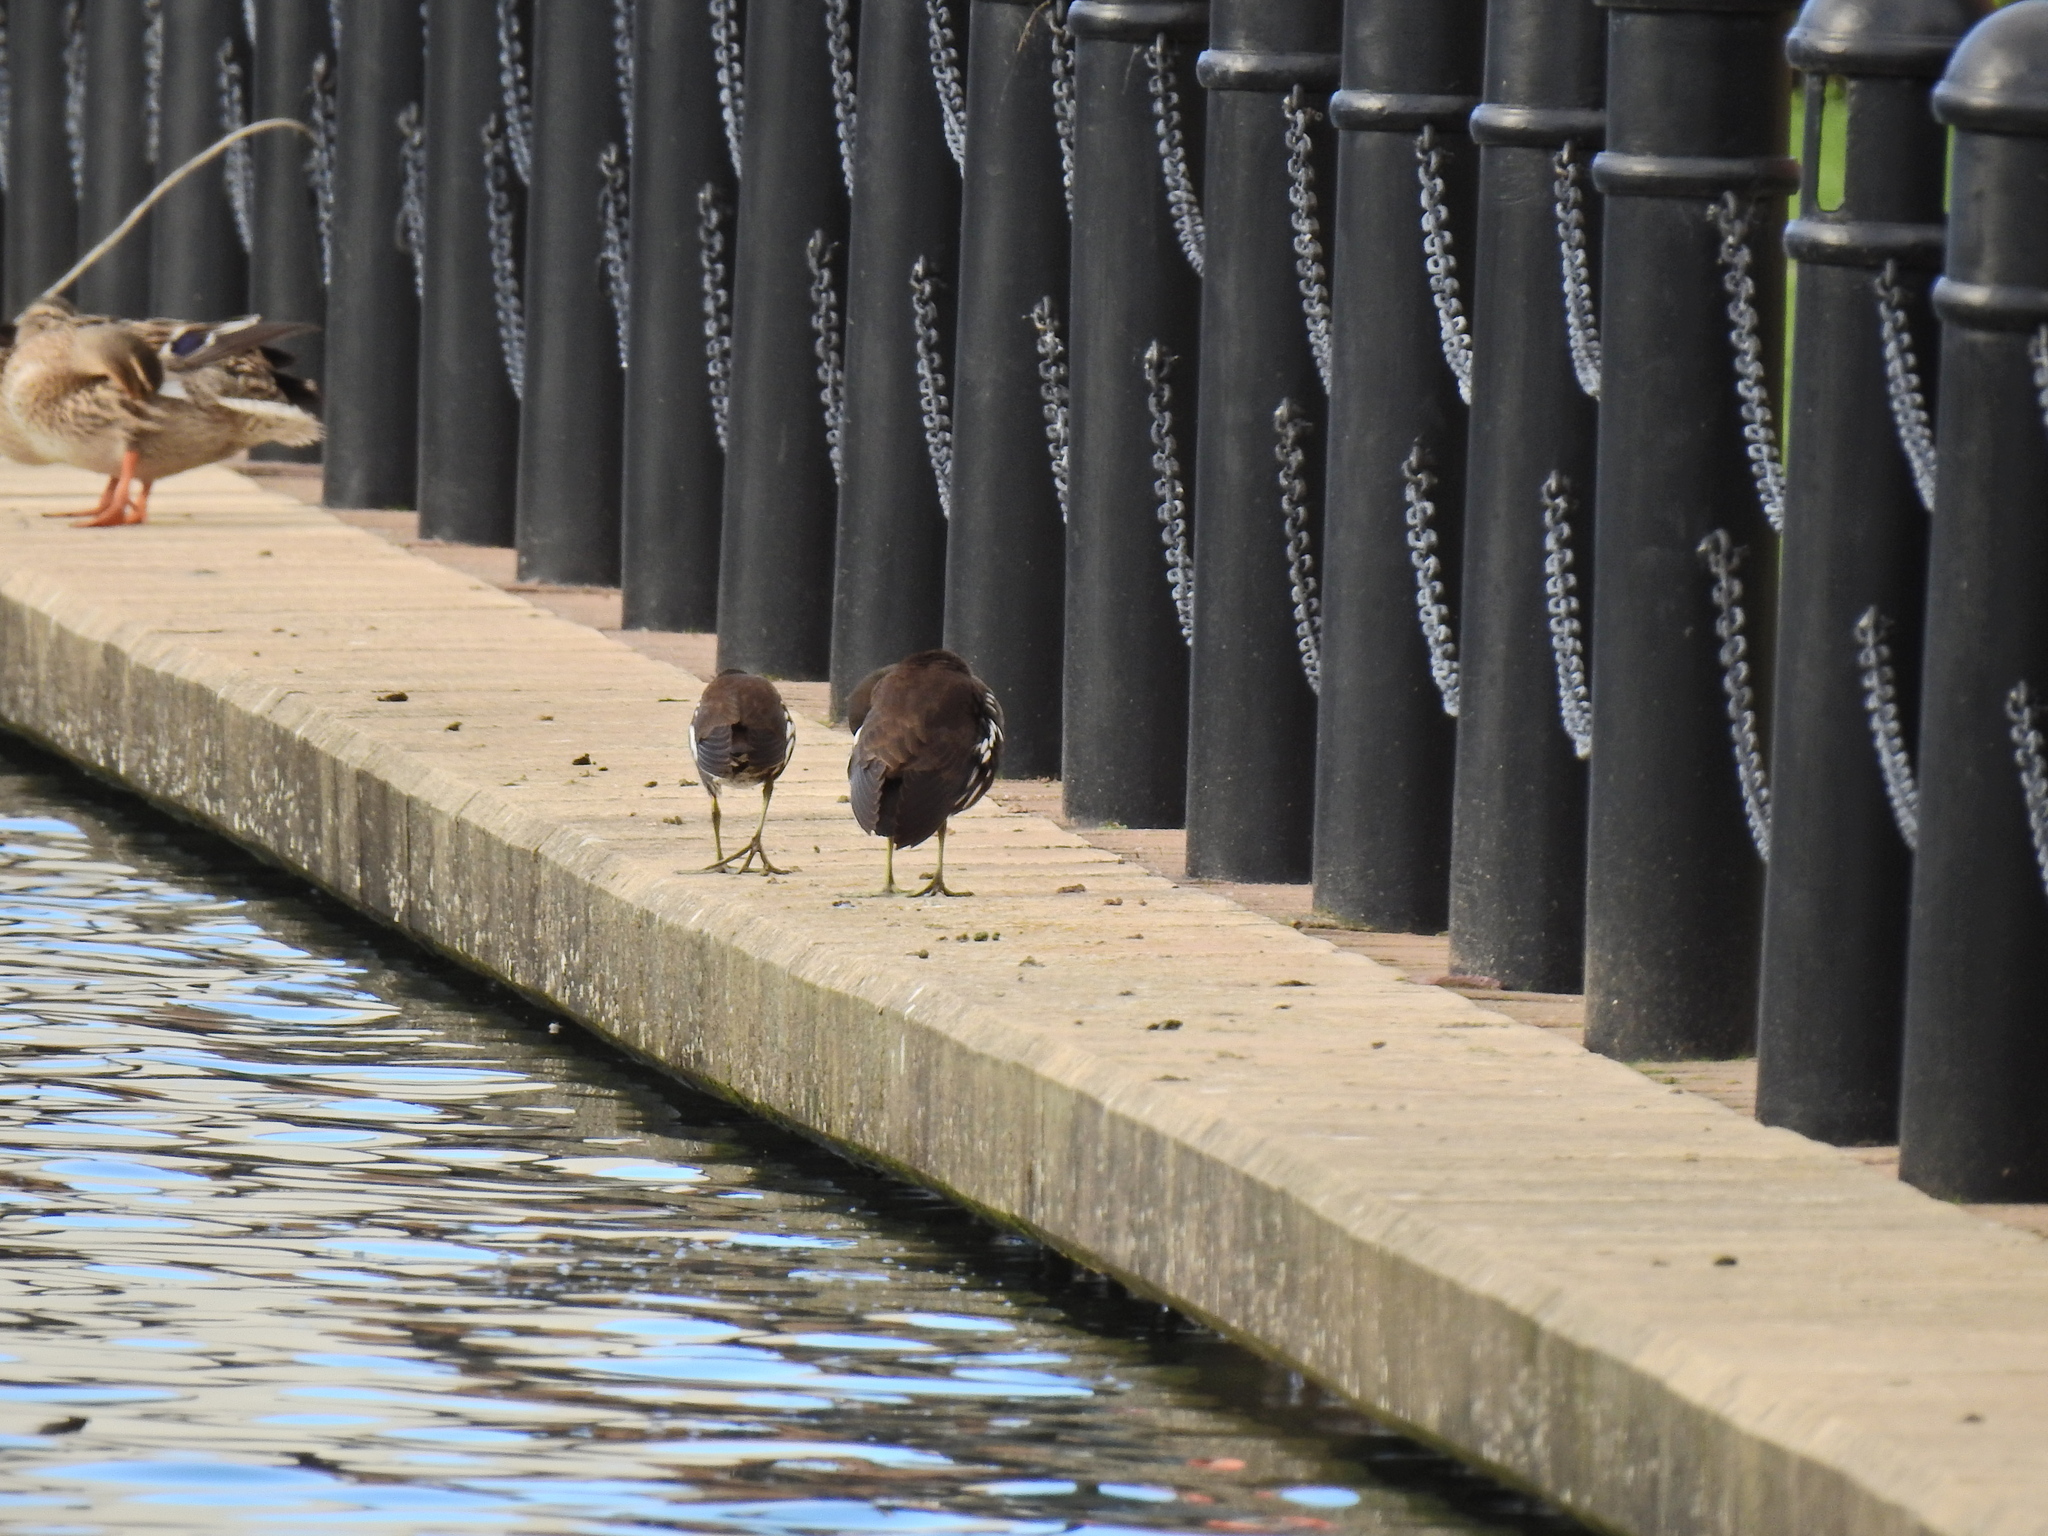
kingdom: Animalia
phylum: Chordata
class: Aves
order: Gruiformes
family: Rallidae
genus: Gallinula
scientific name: Gallinula chloropus
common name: Common moorhen
